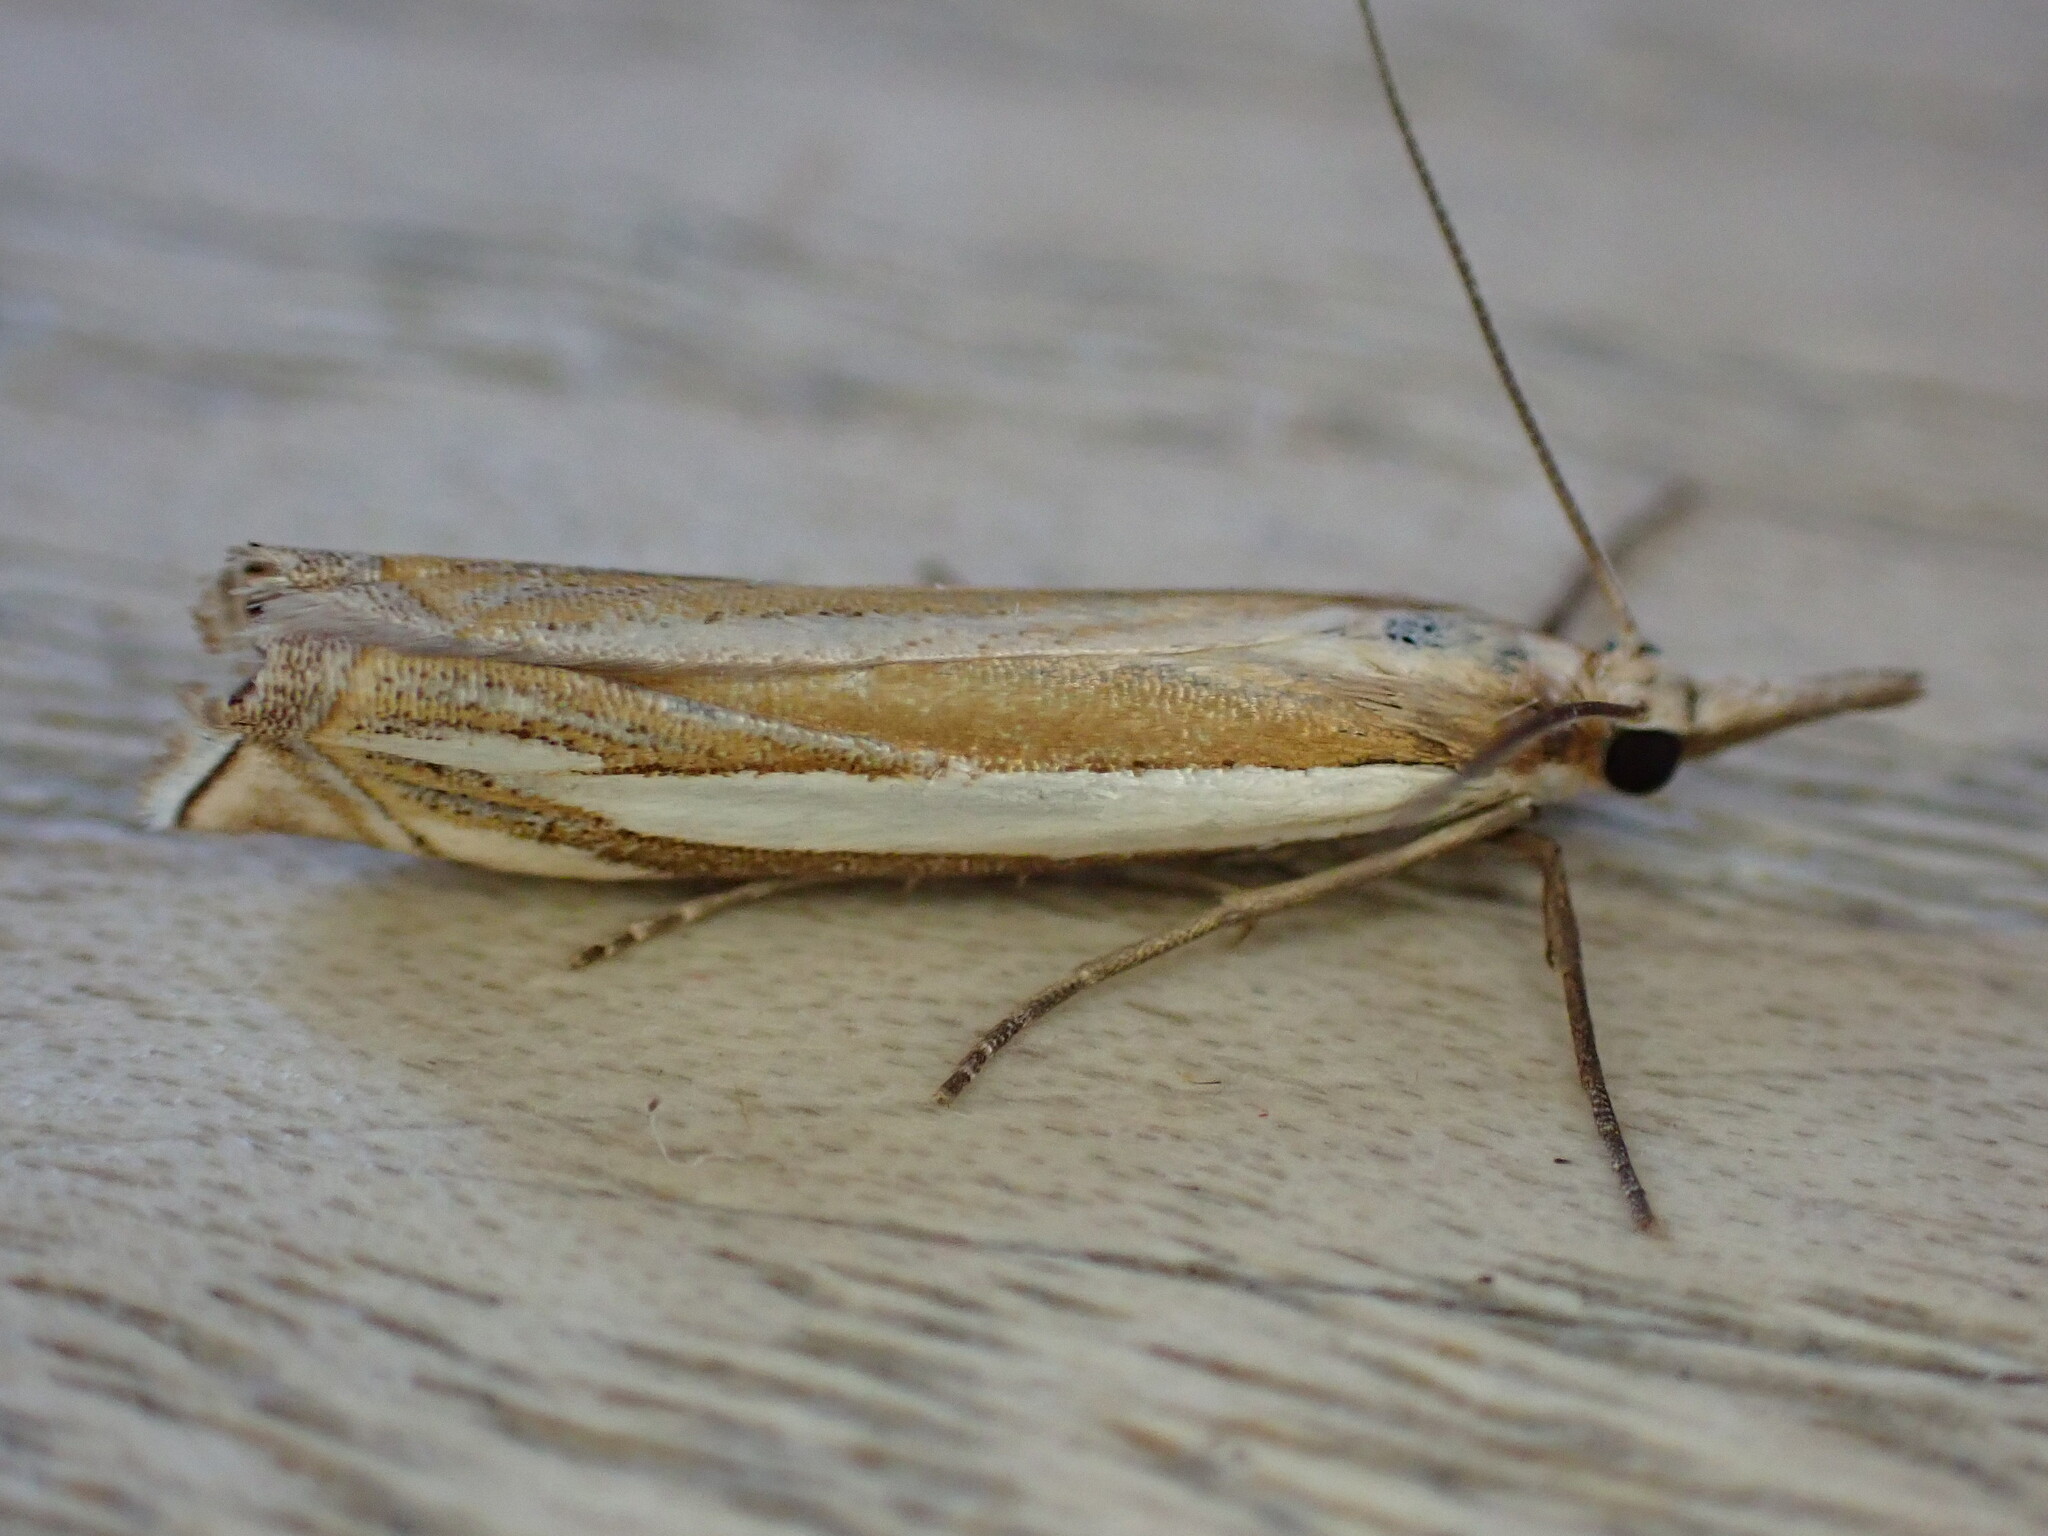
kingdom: Animalia
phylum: Arthropoda
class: Insecta
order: Lepidoptera
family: Crambidae
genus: Crambus
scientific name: Crambus pascuella
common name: Inlaid grass-veneer
